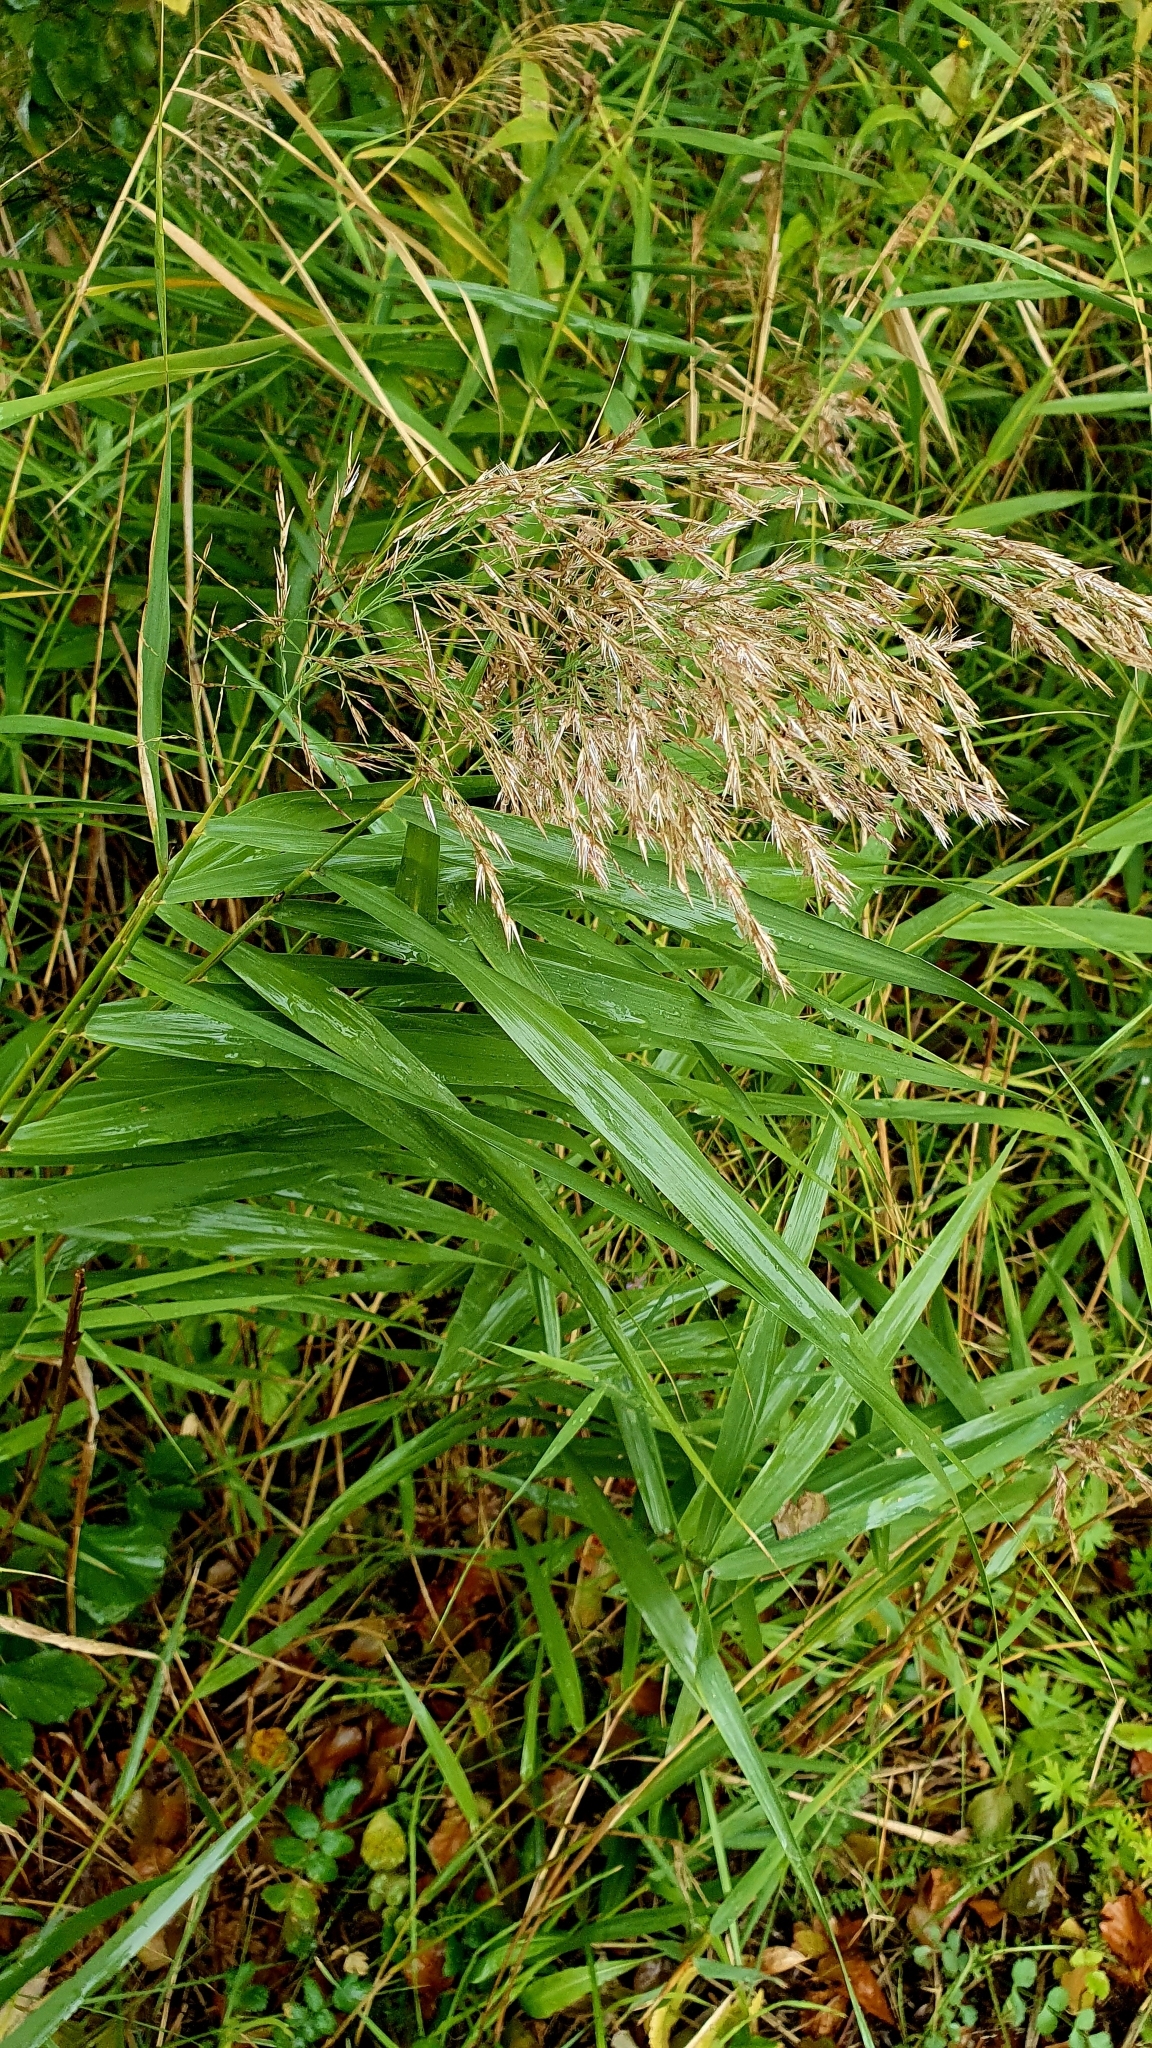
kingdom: Plantae
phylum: Tracheophyta
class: Liliopsida
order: Poales
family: Poaceae
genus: Phragmites
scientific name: Phragmites australis
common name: Common reed
